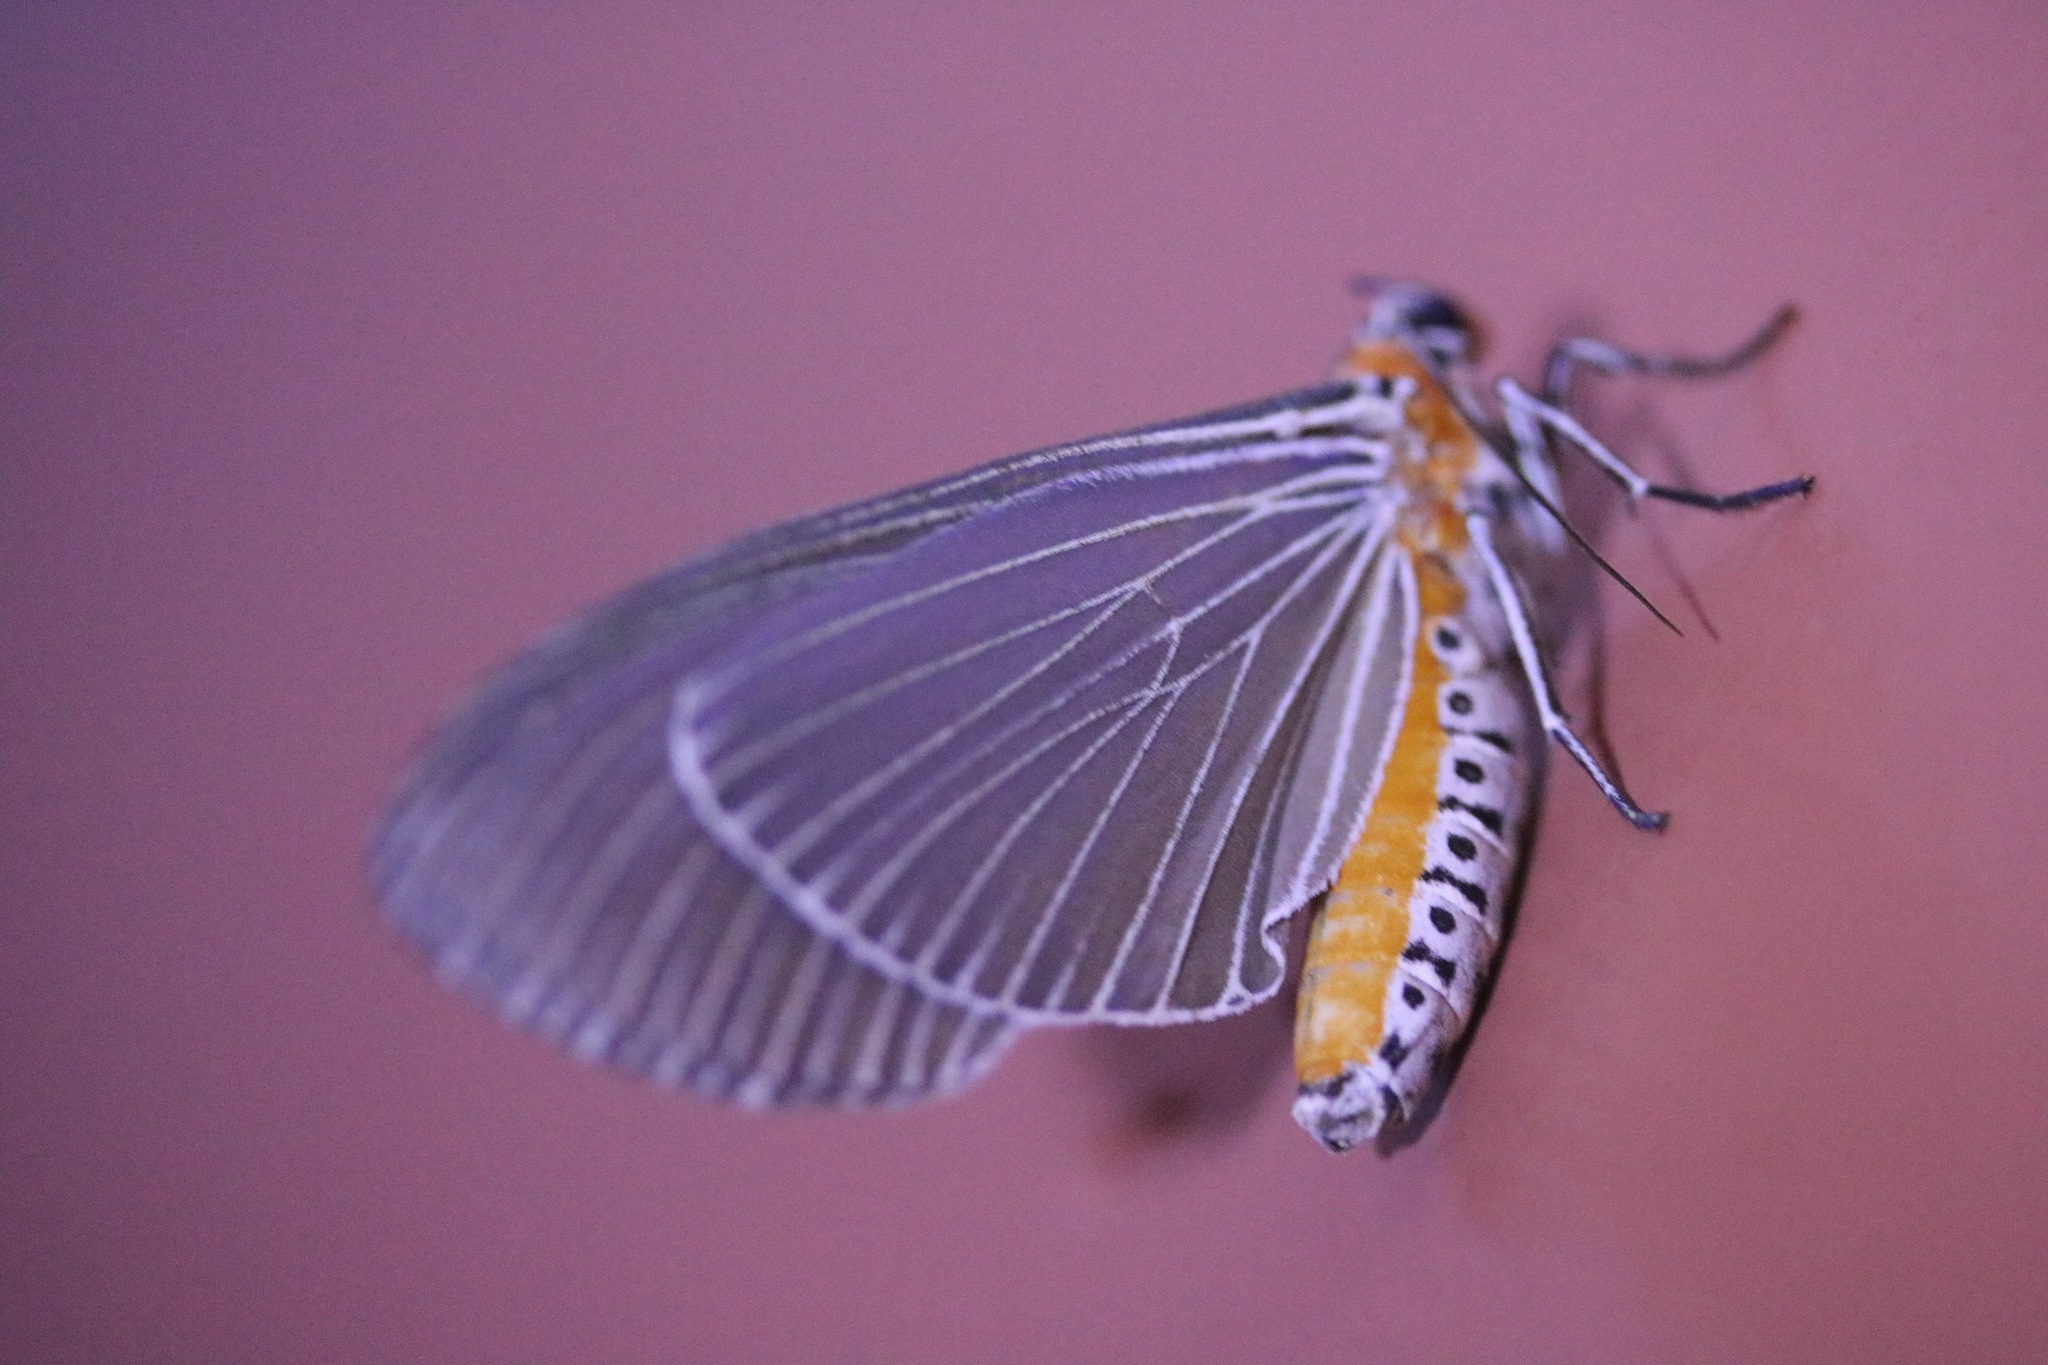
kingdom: Animalia
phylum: Arthropoda
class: Insecta
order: Lepidoptera
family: Erebidae
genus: Euplocia
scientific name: Euplocia membliaria
